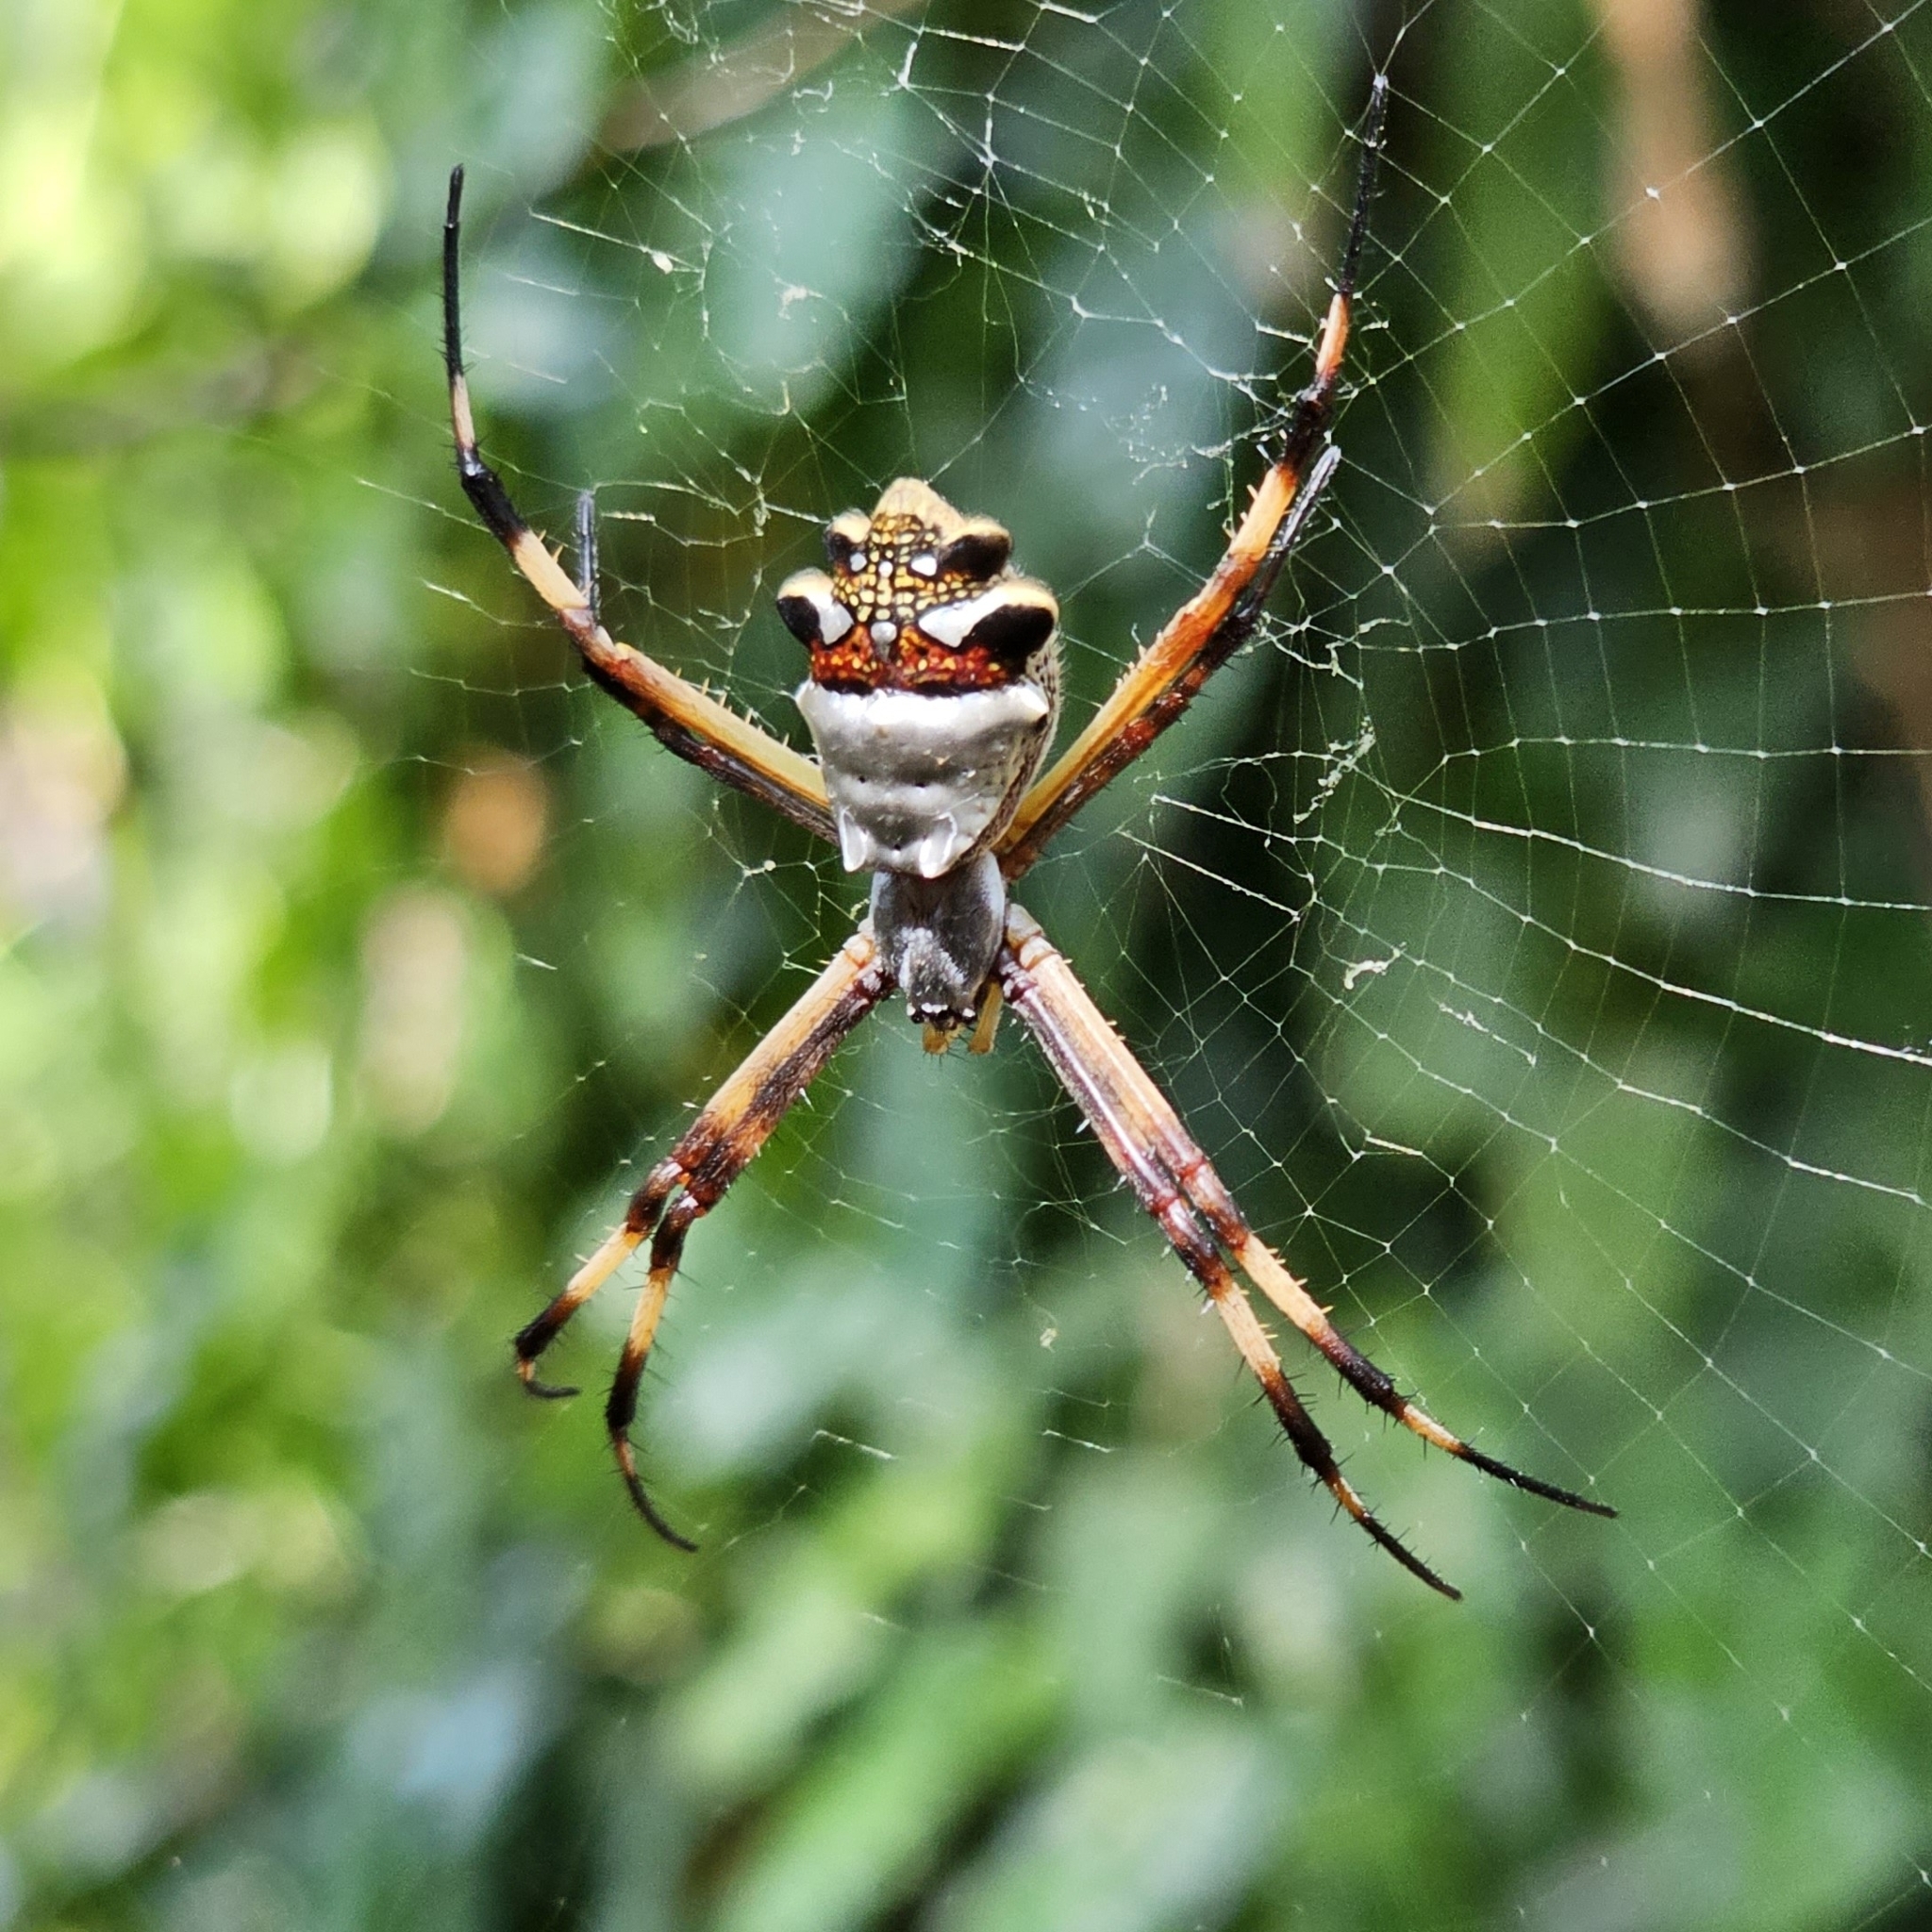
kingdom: Animalia
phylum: Arthropoda
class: Arachnida
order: Araneae
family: Araneidae
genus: Argiope
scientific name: Argiope argentata
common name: Orb weavers
